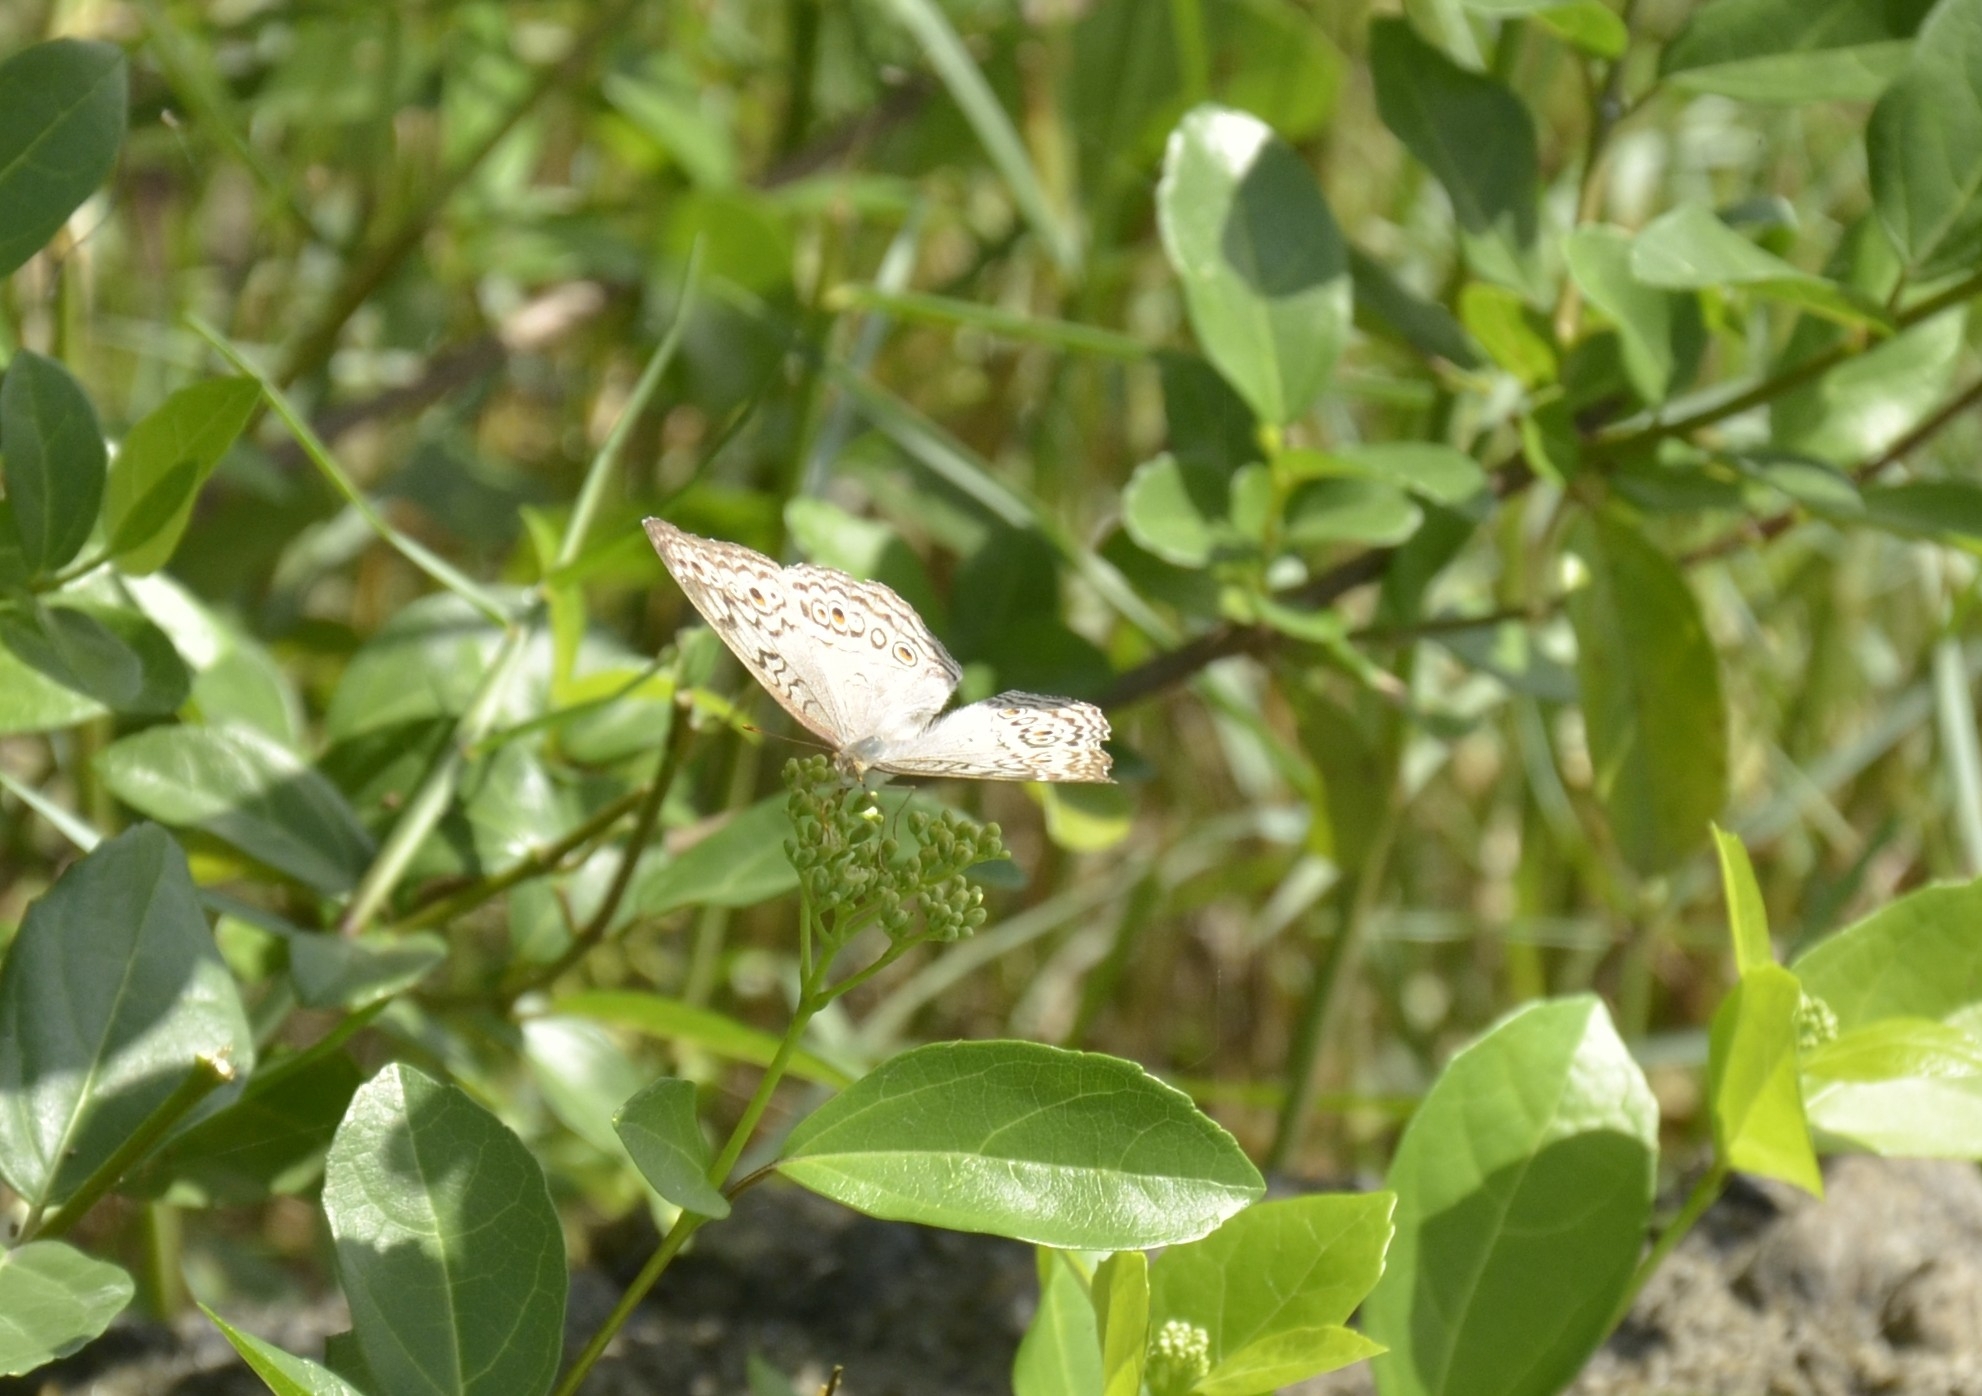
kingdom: Animalia
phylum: Arthropoda
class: Insecta
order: Lepidoptera
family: Nymphalidae
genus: Junonia
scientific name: Junonia atlites
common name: Grey pansy
